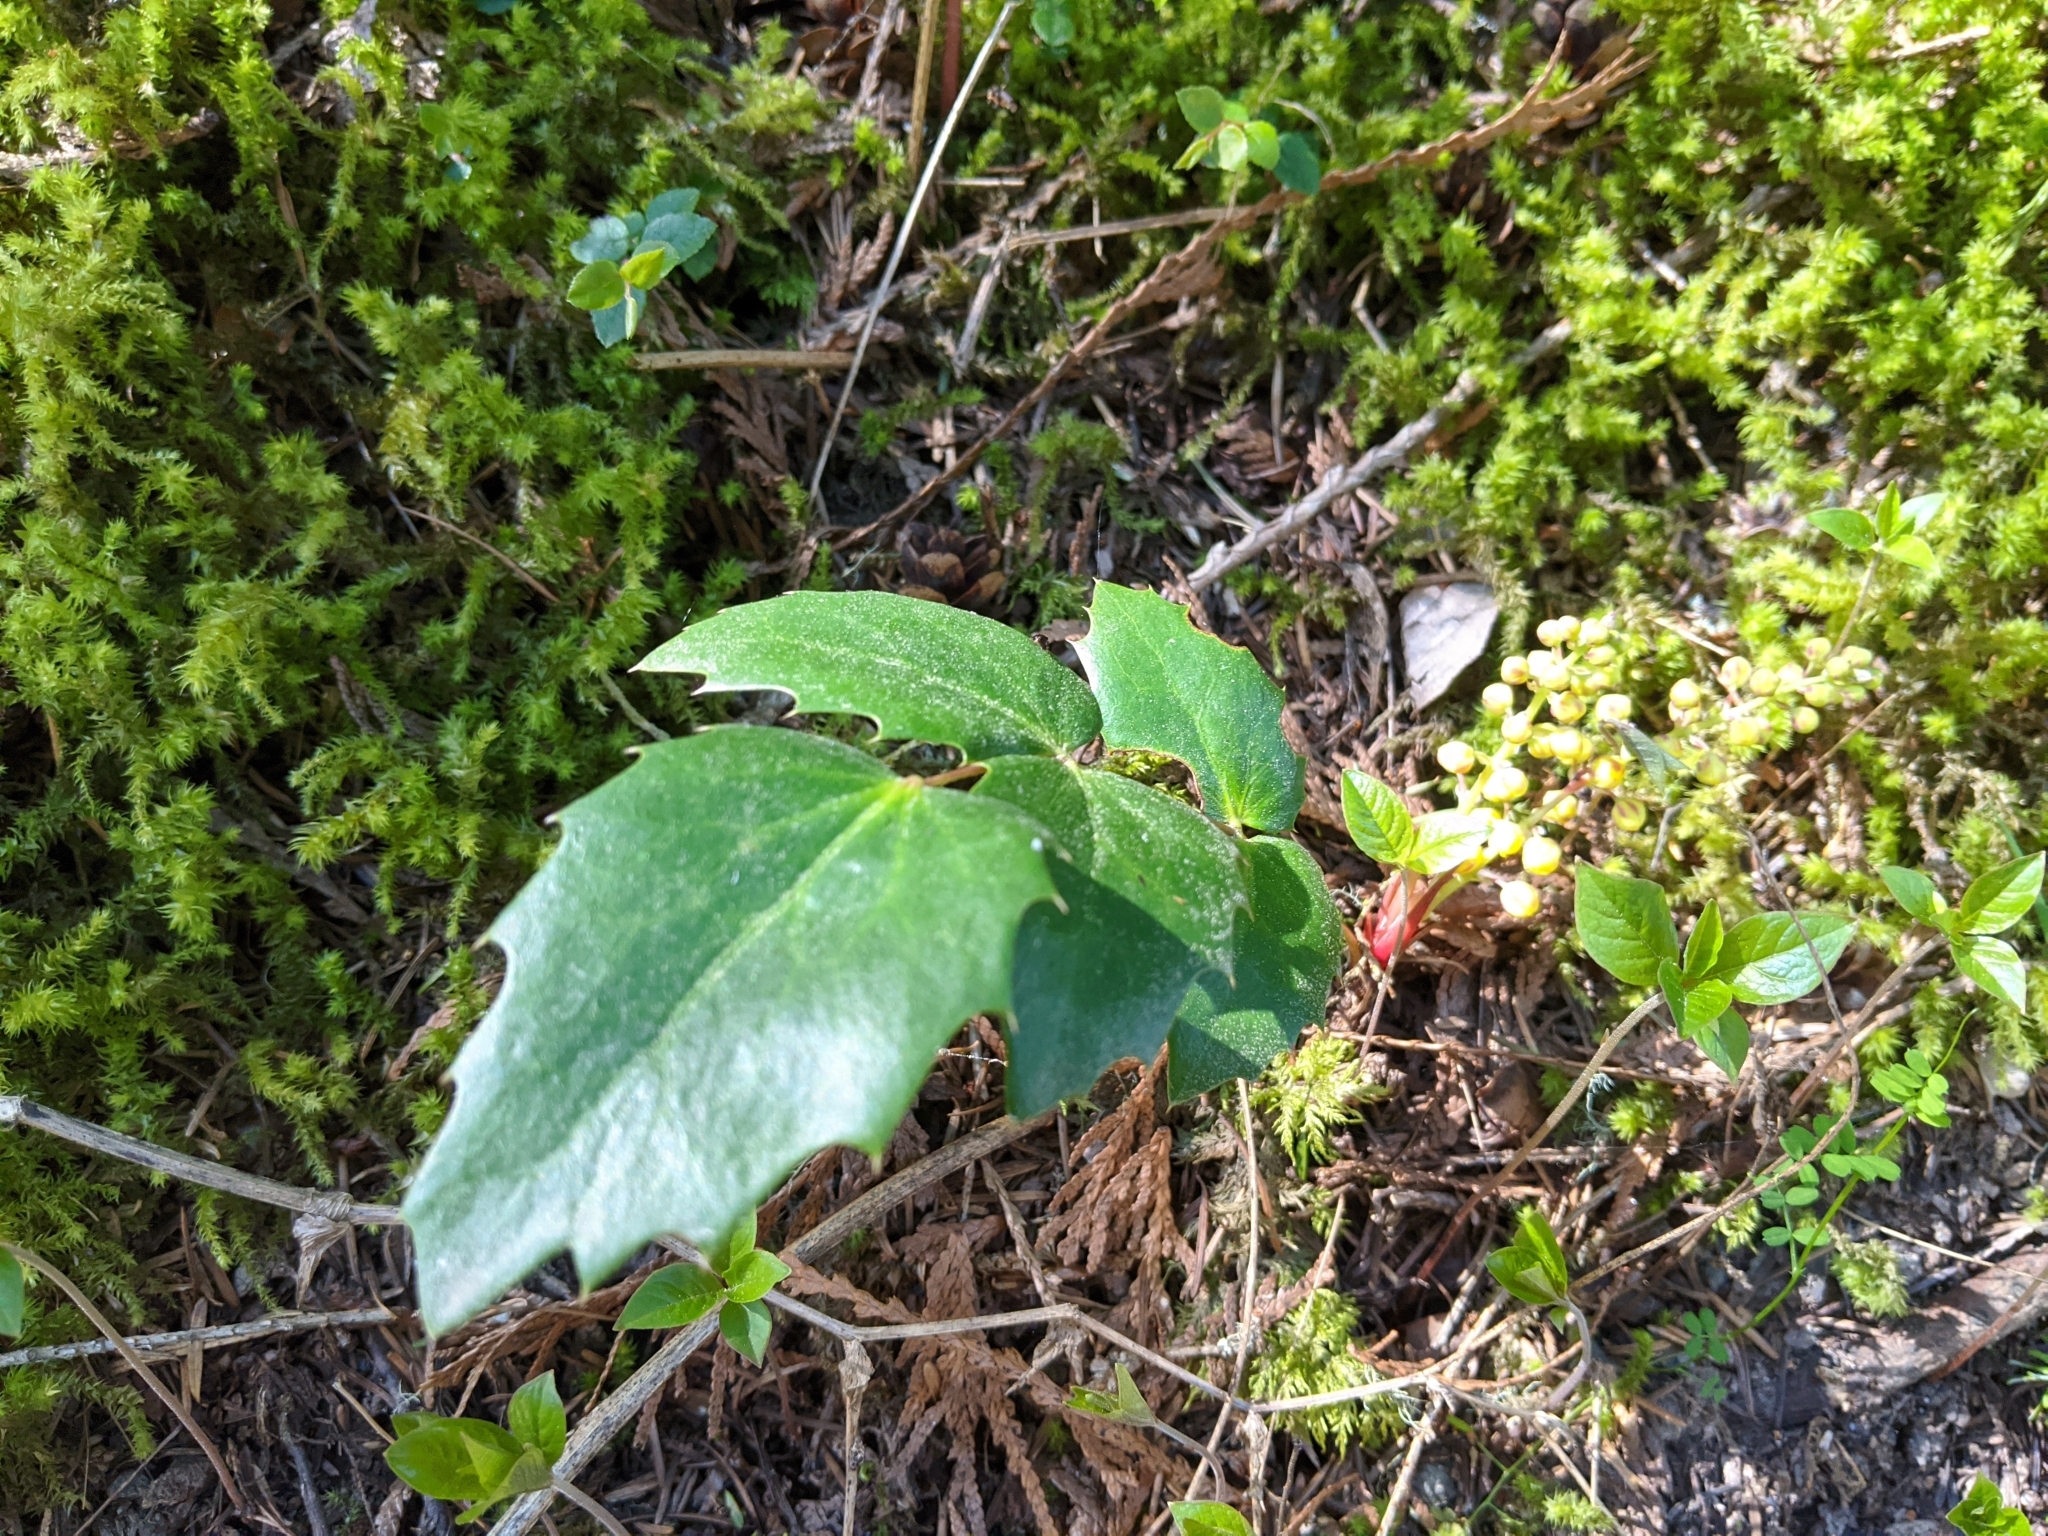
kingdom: Plantae
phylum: Tracheophyta
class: Magnoliopsida
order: Ranunculales
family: Berberidaceae
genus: Mahonia
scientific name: Mahonia nervosa
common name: Cascade oregon-grape
